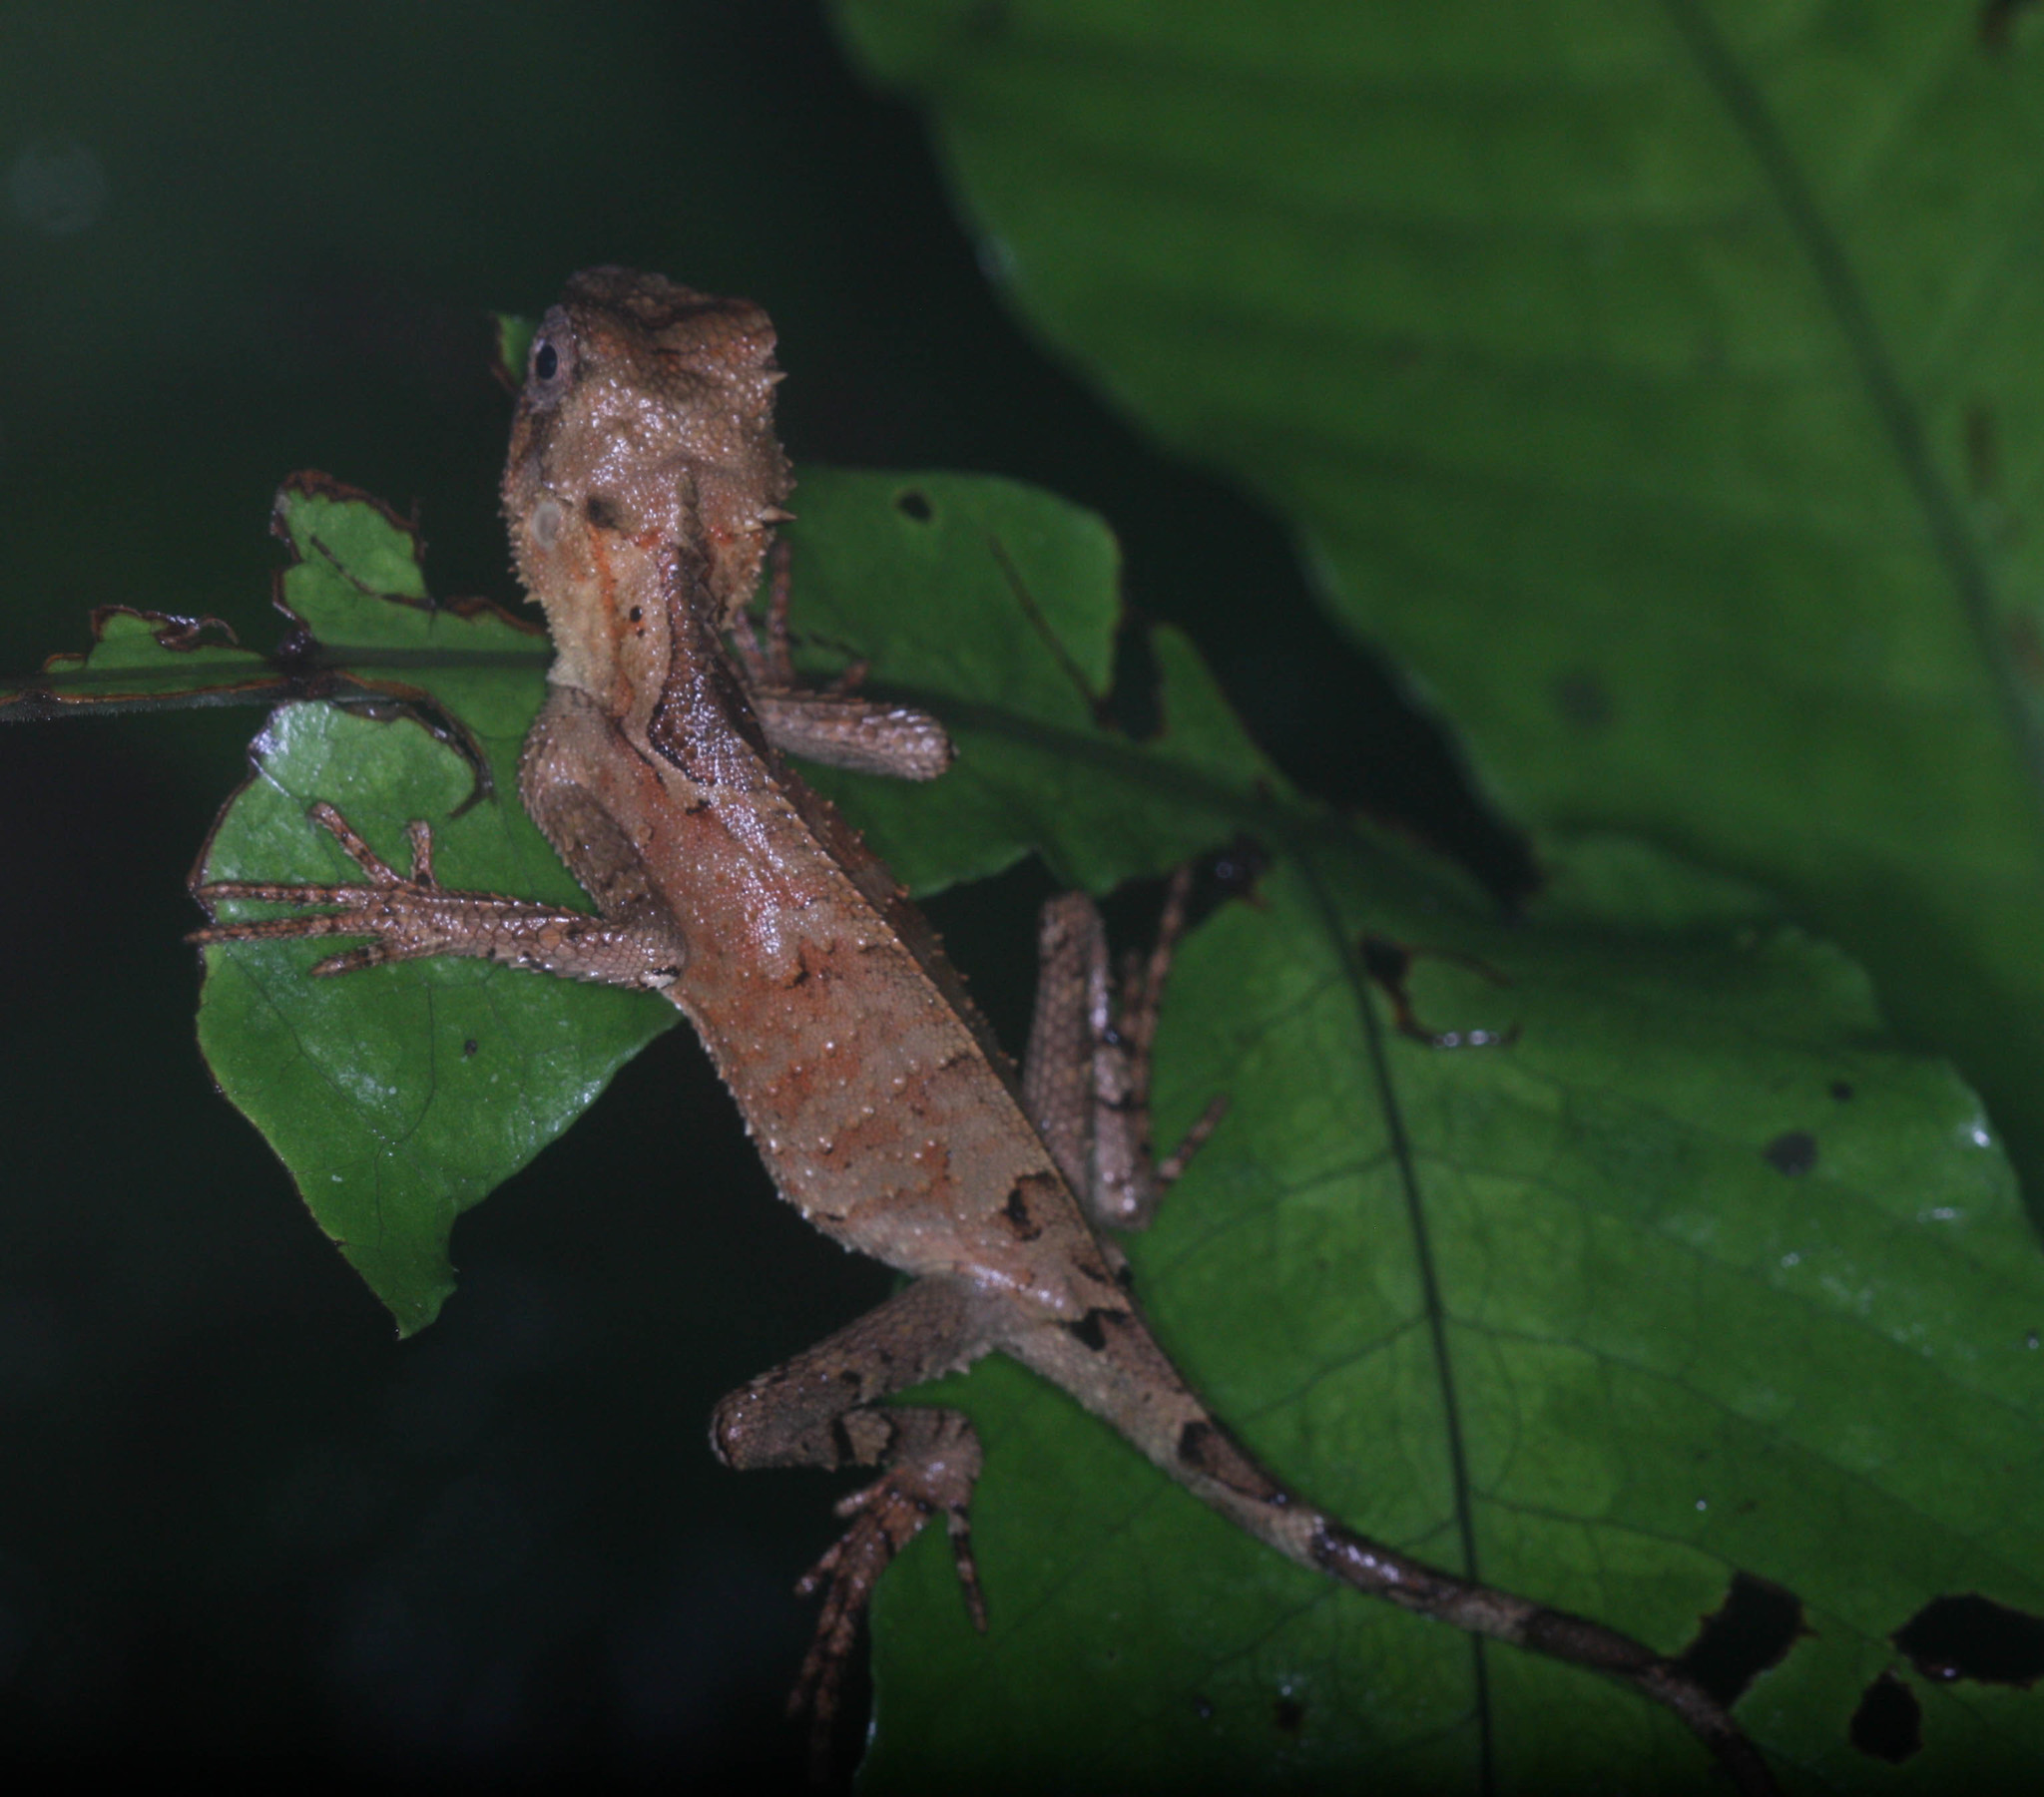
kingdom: Animalia
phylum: Chordata
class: Squamata
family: Agamidae
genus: Acanthosaura
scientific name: Acanthosaura lepidogaster
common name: Brown pricklenape
